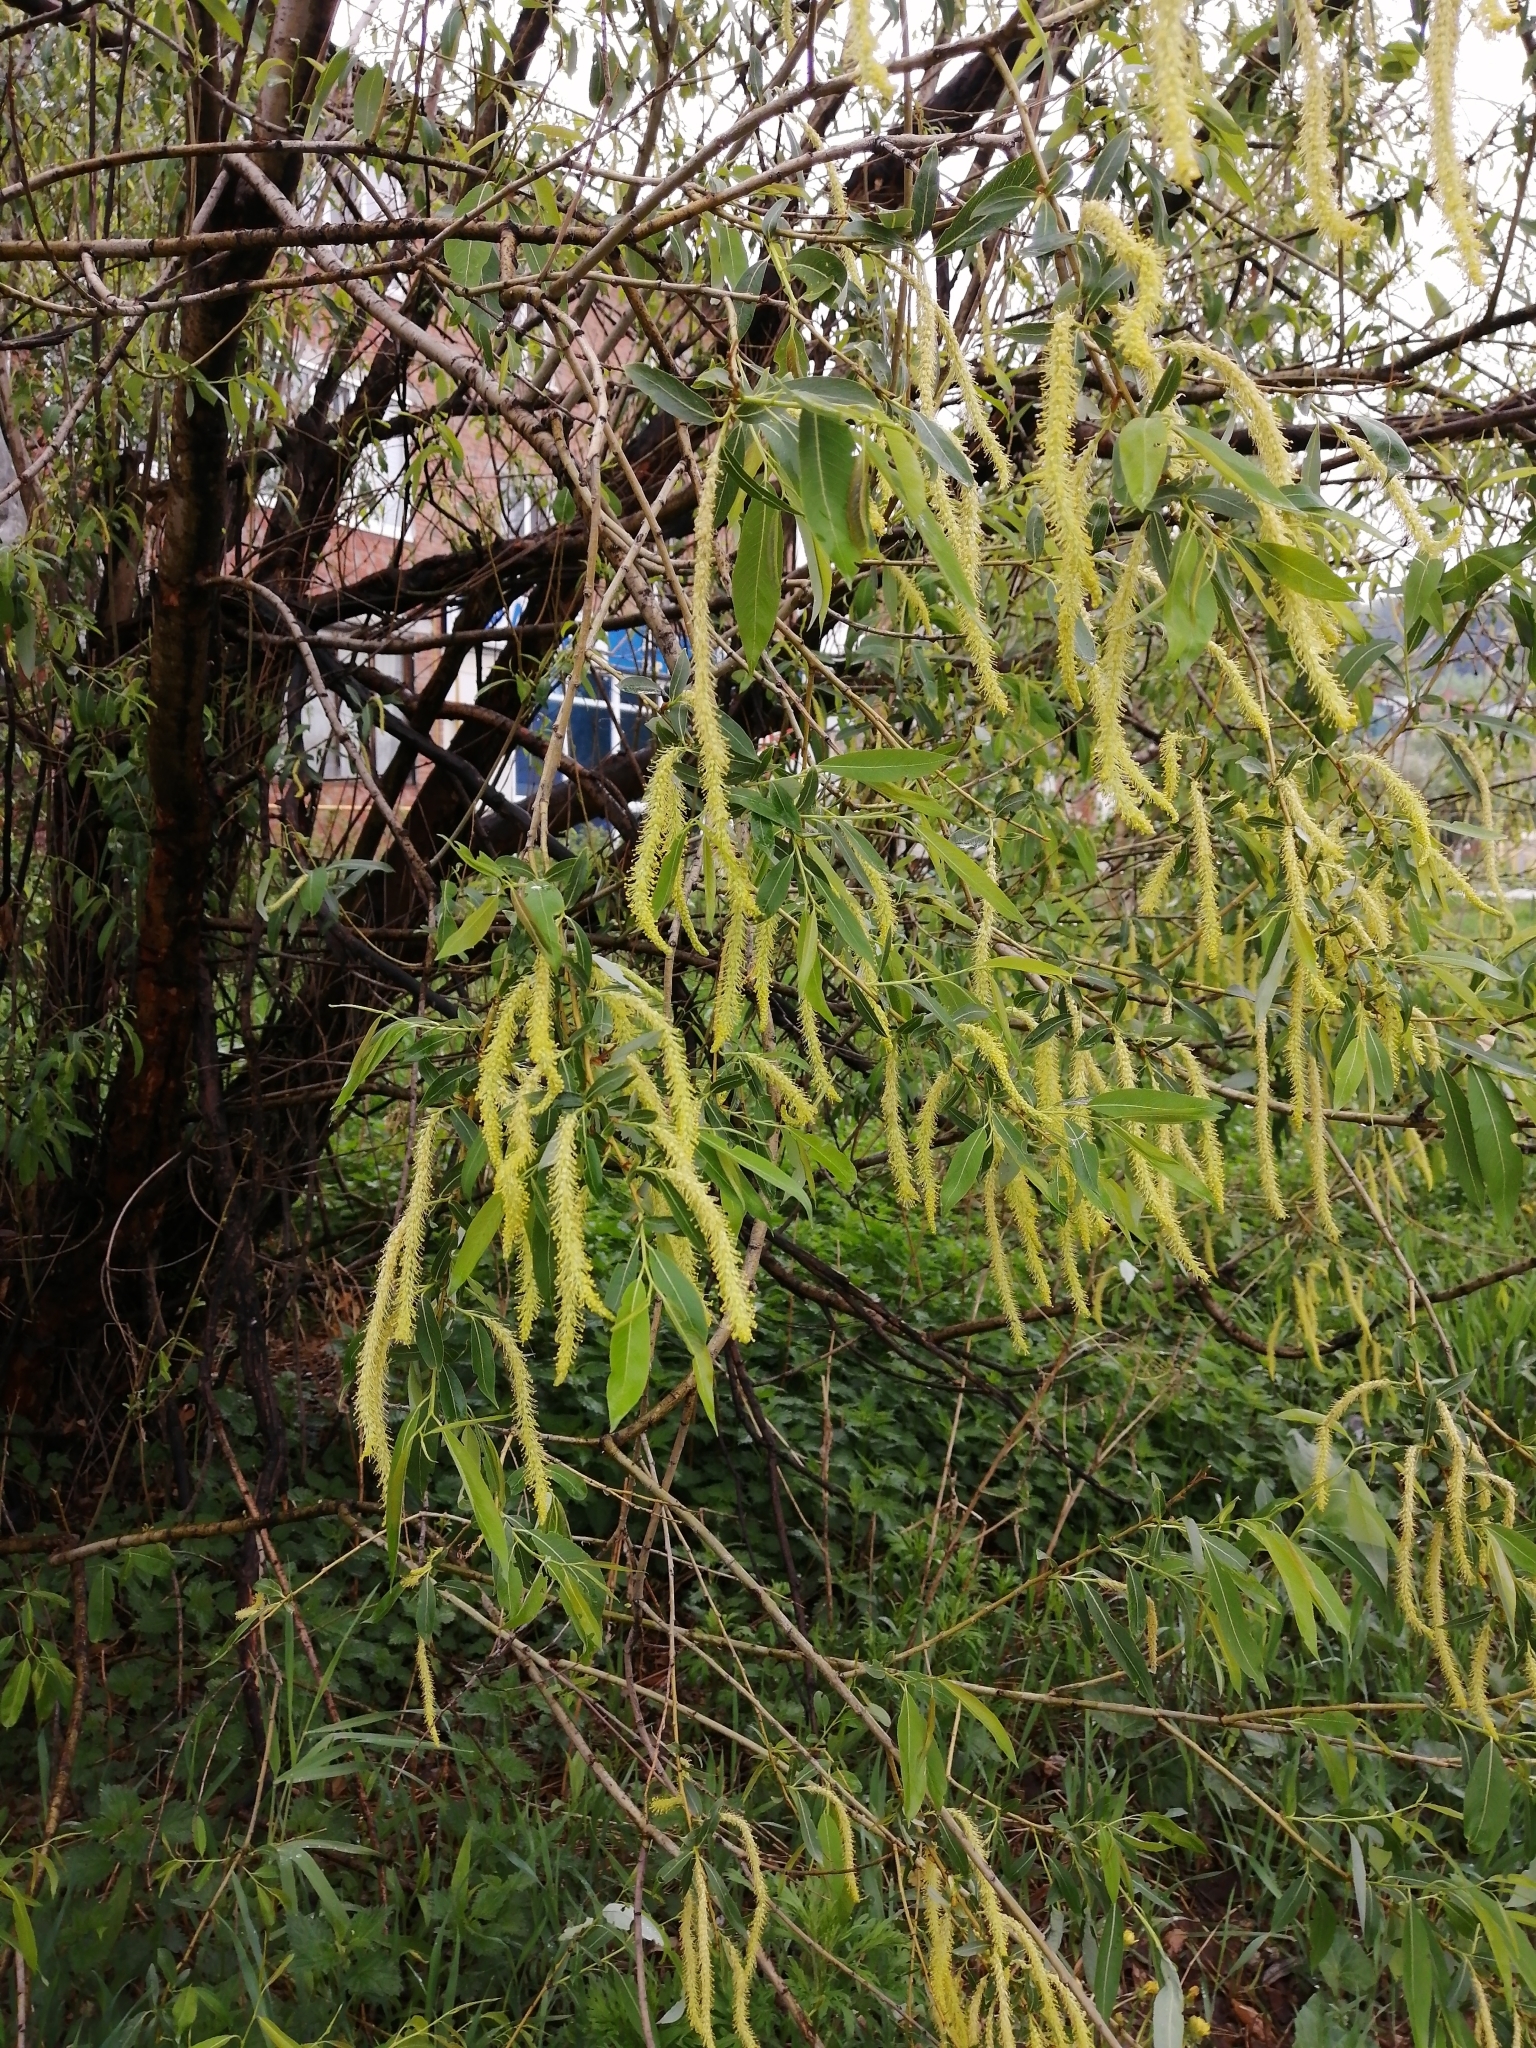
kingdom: Plantae
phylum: Tracheophyta
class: Magnoliopsida
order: Malpighiales
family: Salicaceae
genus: Salix
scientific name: Salix triandra
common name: Almond willow
